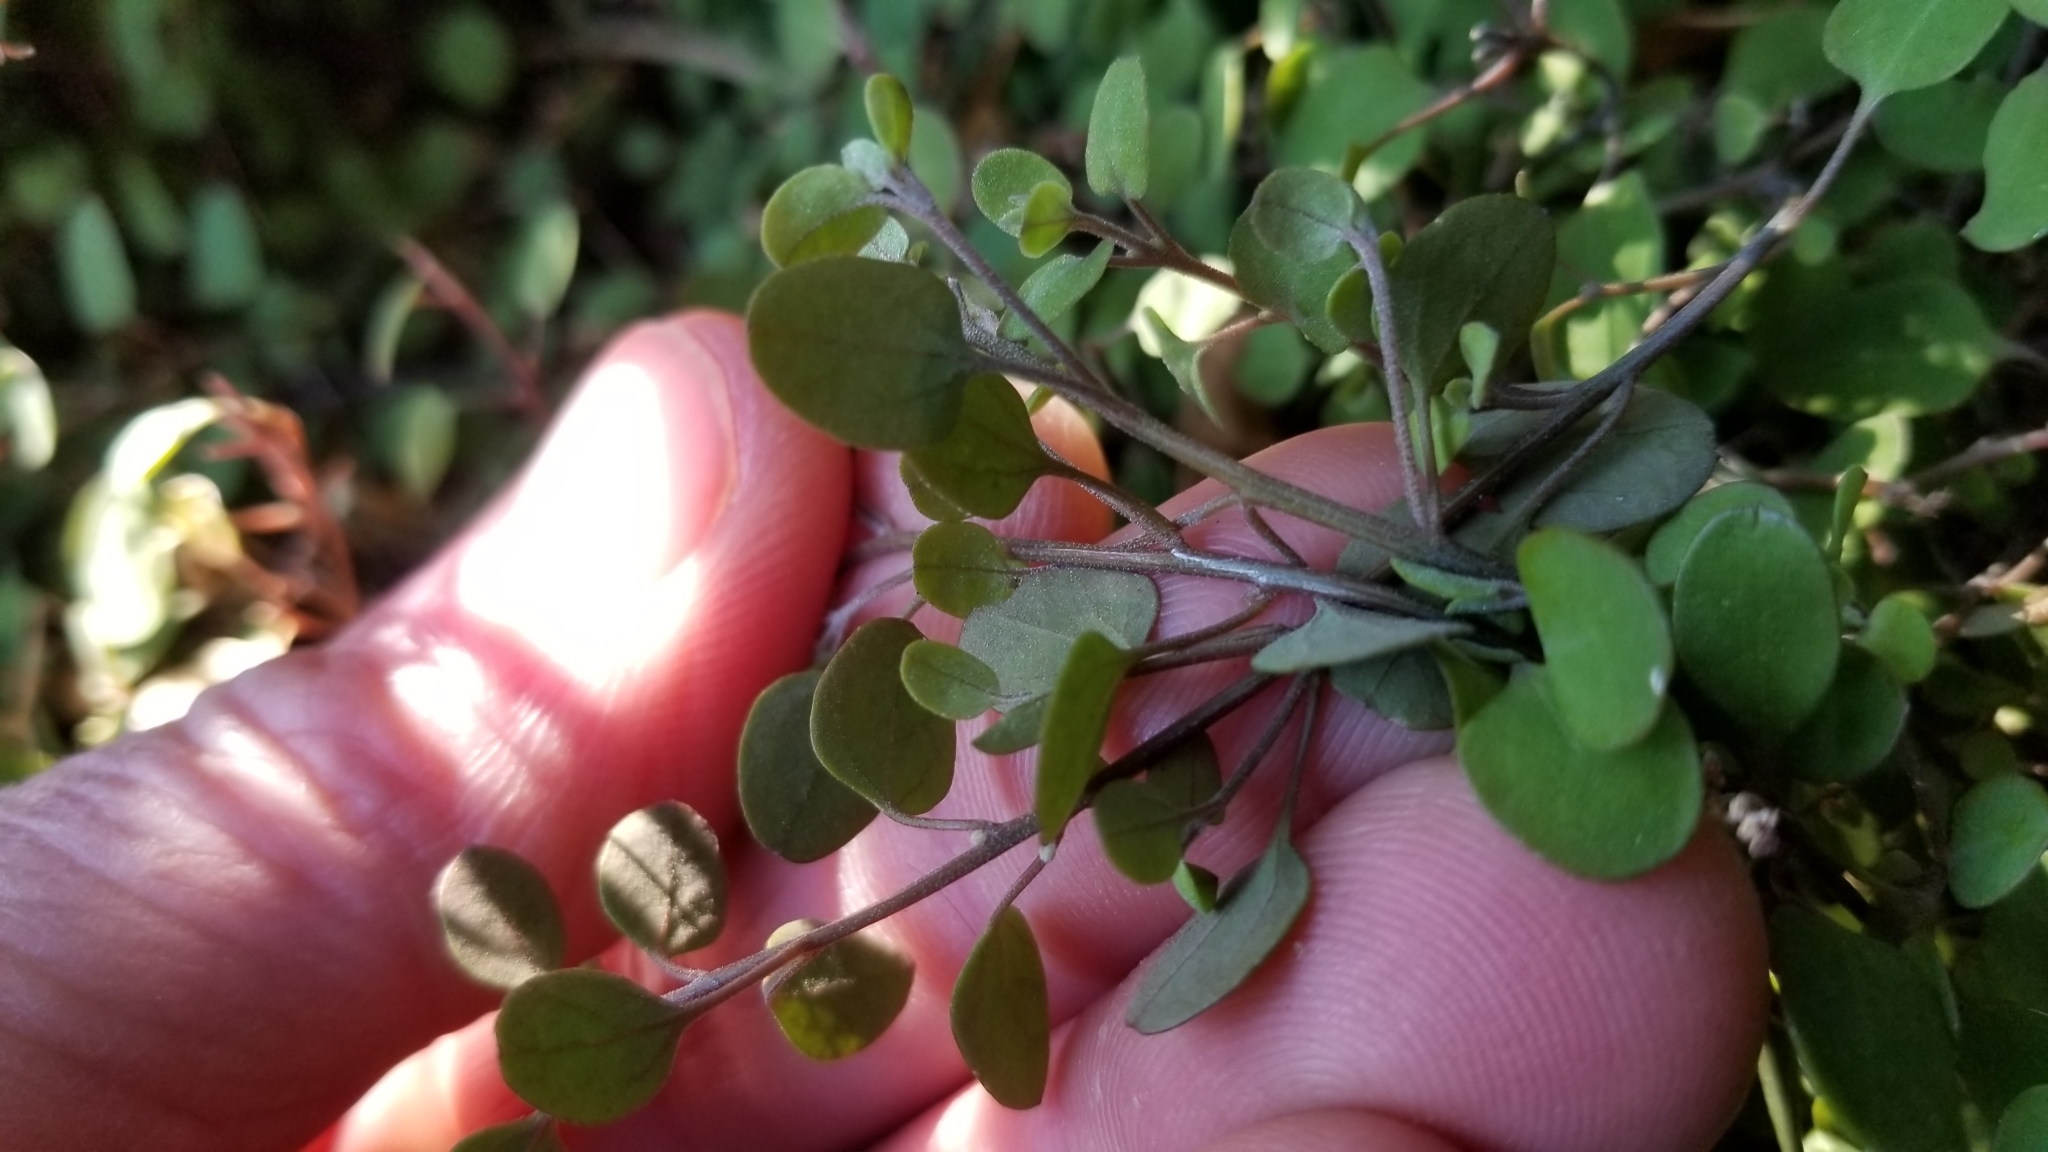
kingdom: Plantae
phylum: Tracheophyta
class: Magnoliopsida
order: Caryophyllales
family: Amaranthaceae
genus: Chenopodium
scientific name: Chenopodium allanii
